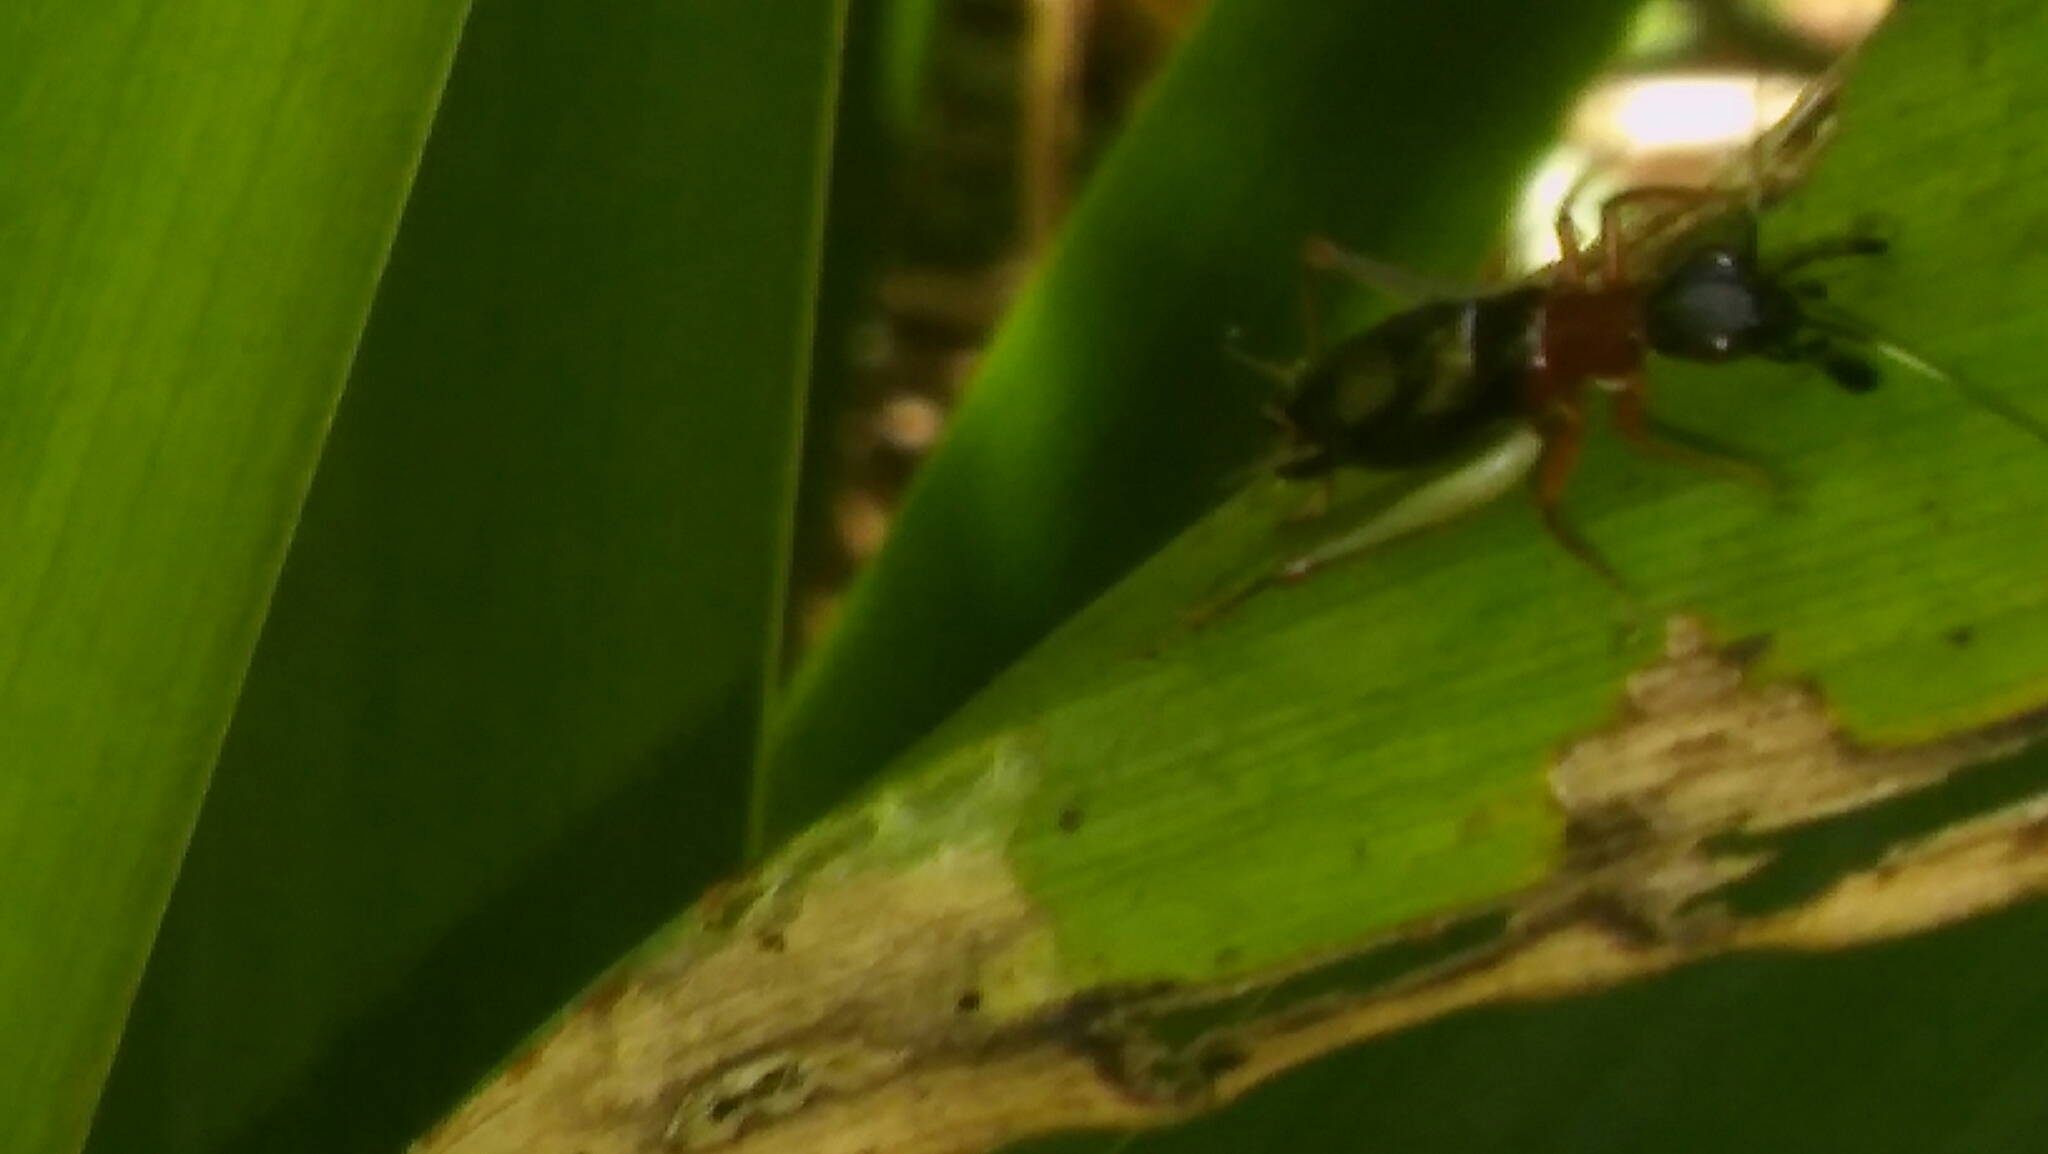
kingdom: Animalia
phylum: Arthropoda
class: Insecta
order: Orthoptera
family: Trigonidiidae
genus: Cranistus
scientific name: Cranistus colliurides
